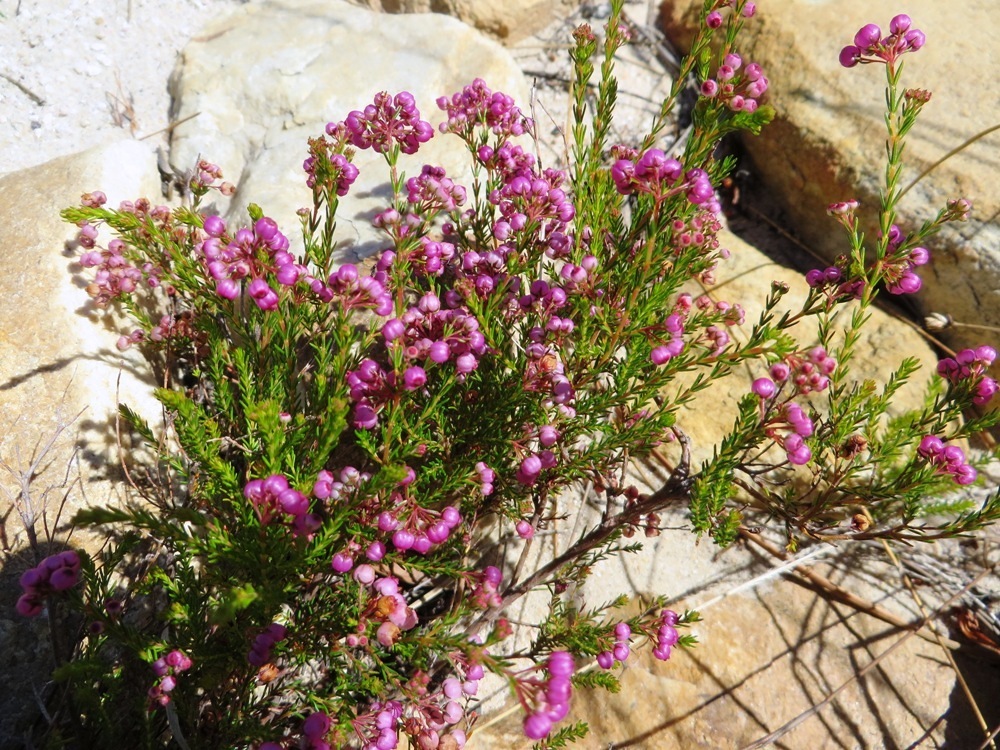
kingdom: Plantae
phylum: Tracheophyta
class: Magnoliopsida
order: Ericales
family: Ericaceae
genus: Erica
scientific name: Erica multumbellifera
